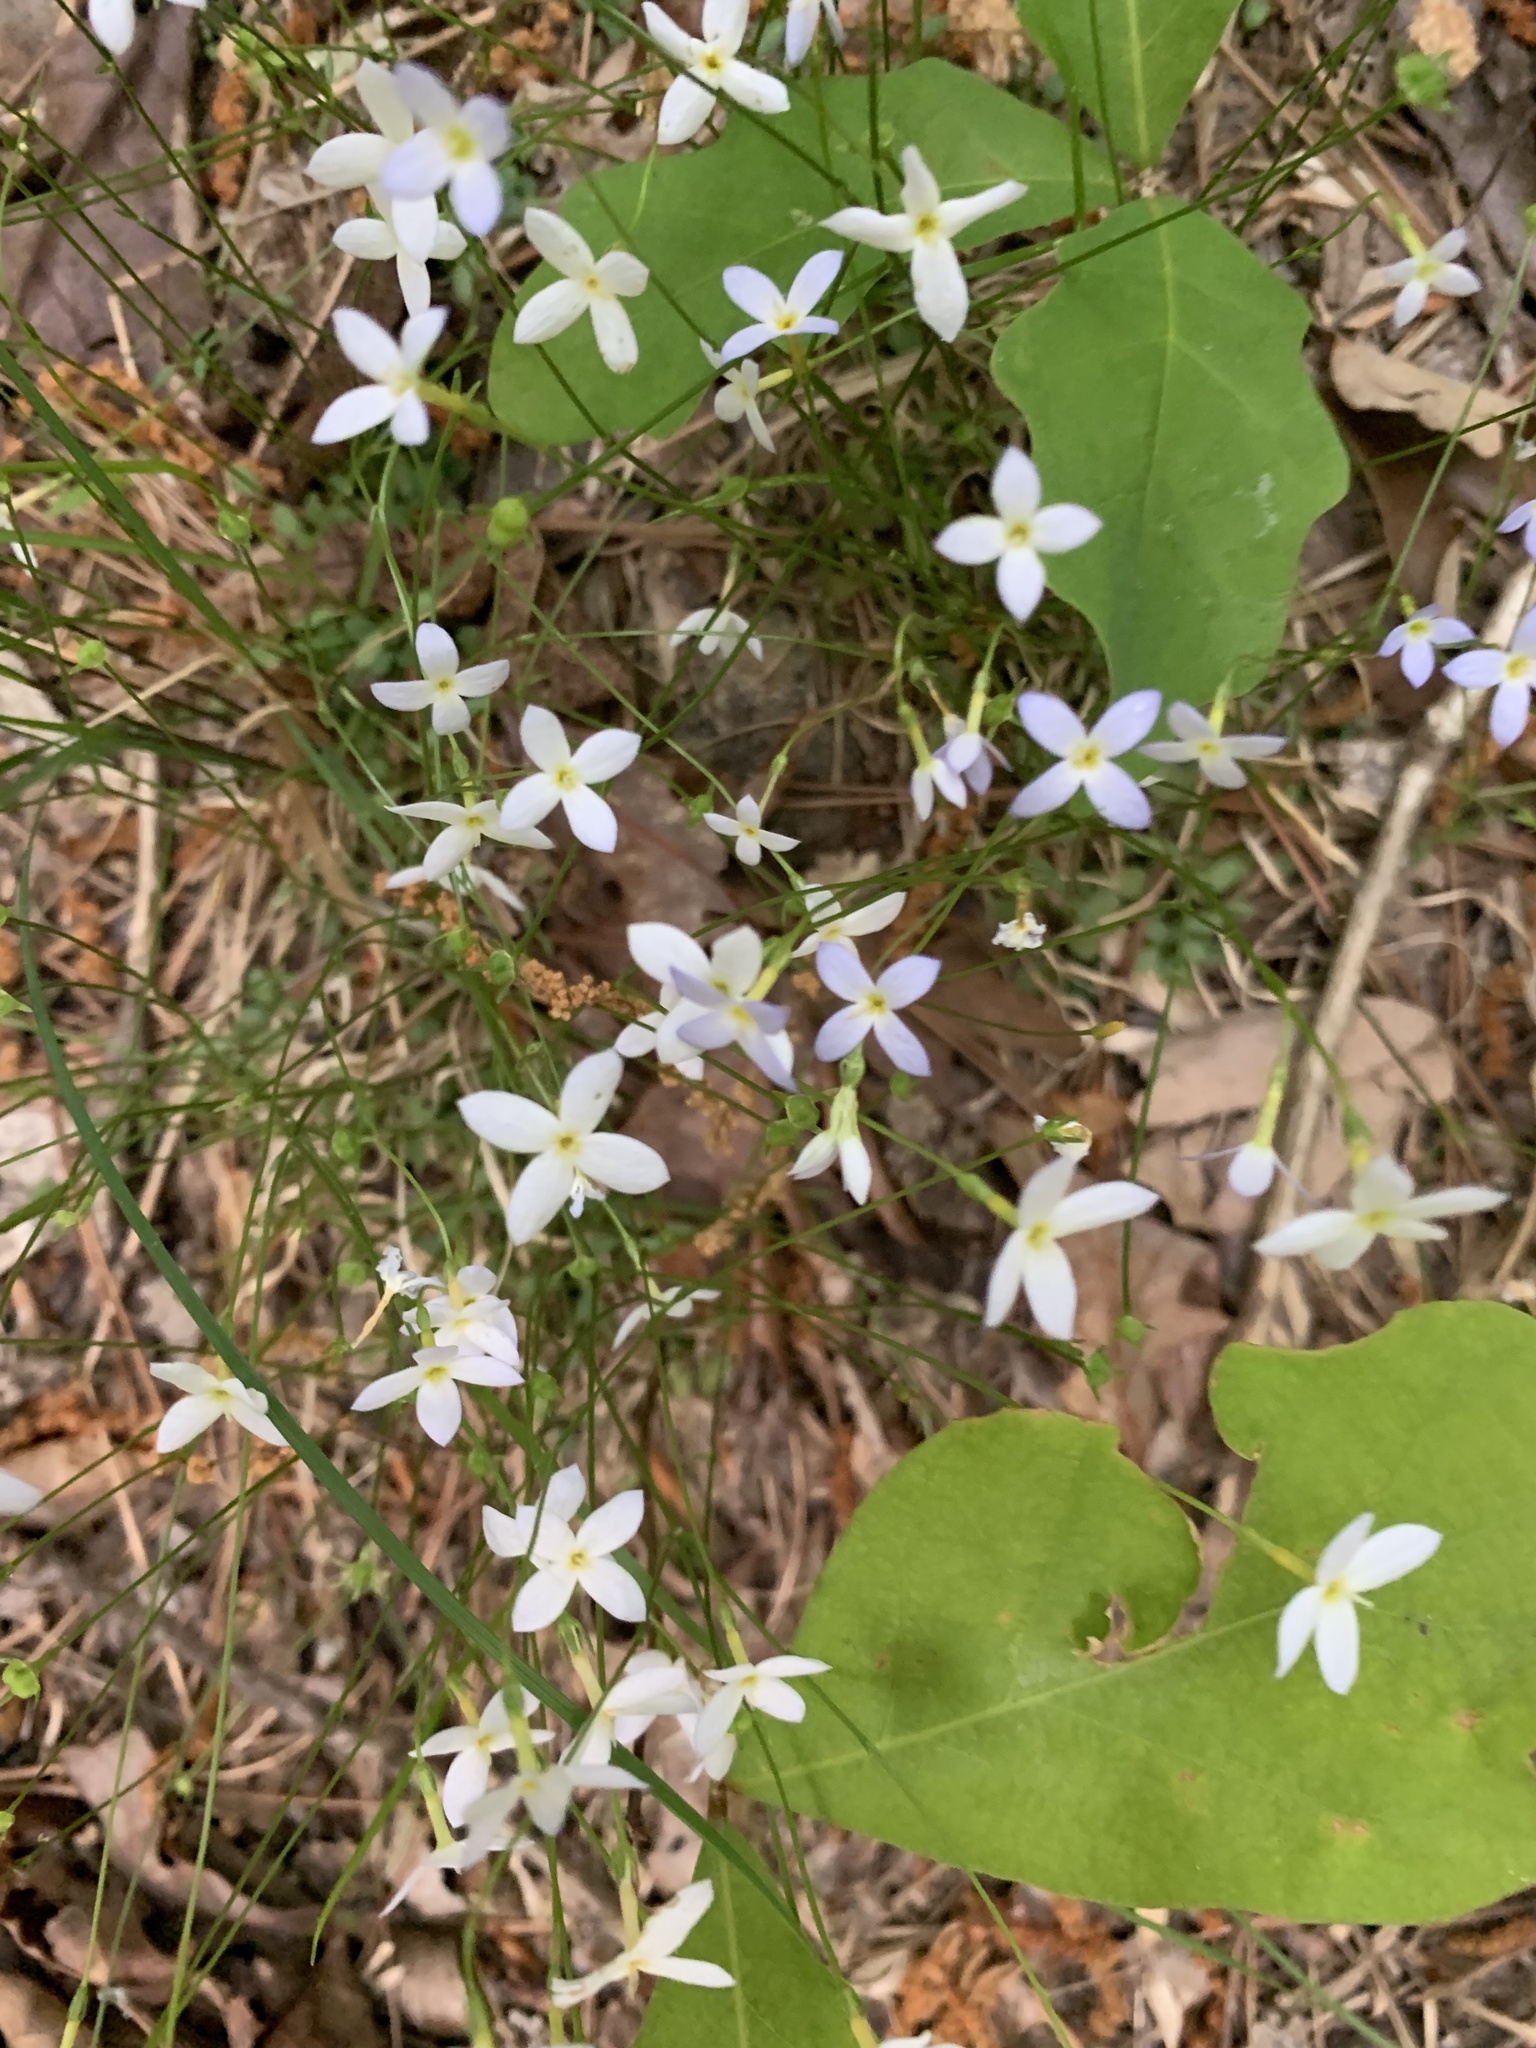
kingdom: Plantae
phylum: Tracheophyta
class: Magnoliopsida
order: Gentianales
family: Rubiaceae
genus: Houstonia
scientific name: Houstonia caerulea
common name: Bluets
